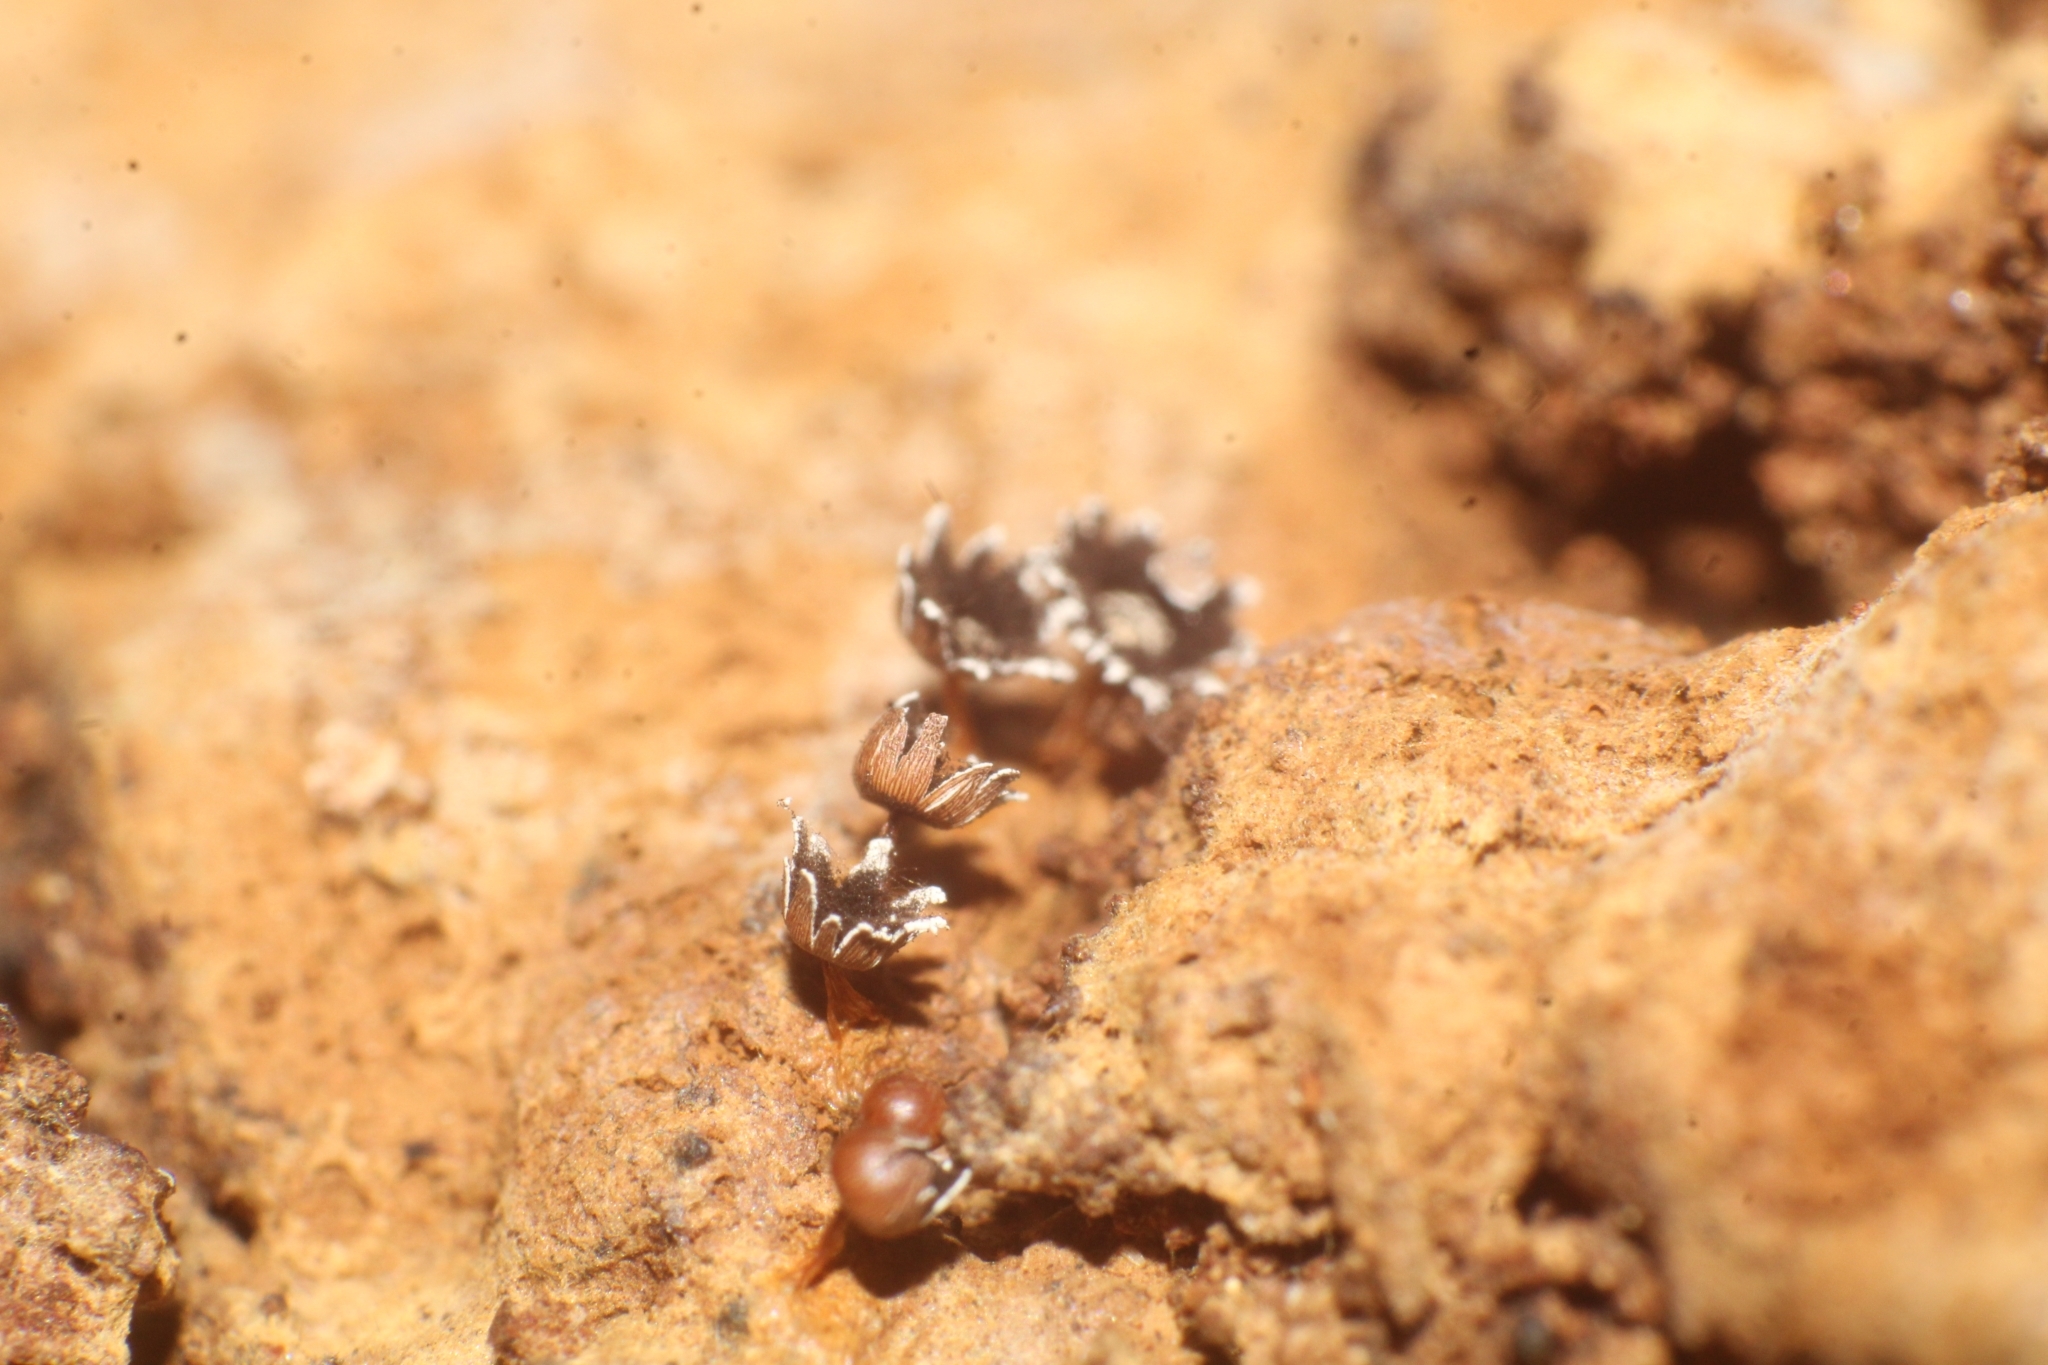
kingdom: Protozoa
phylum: Mycetozoa
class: Myxomycetes
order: Physarales
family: Didymiaceae
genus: Diderma
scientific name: Diderma asteroides
